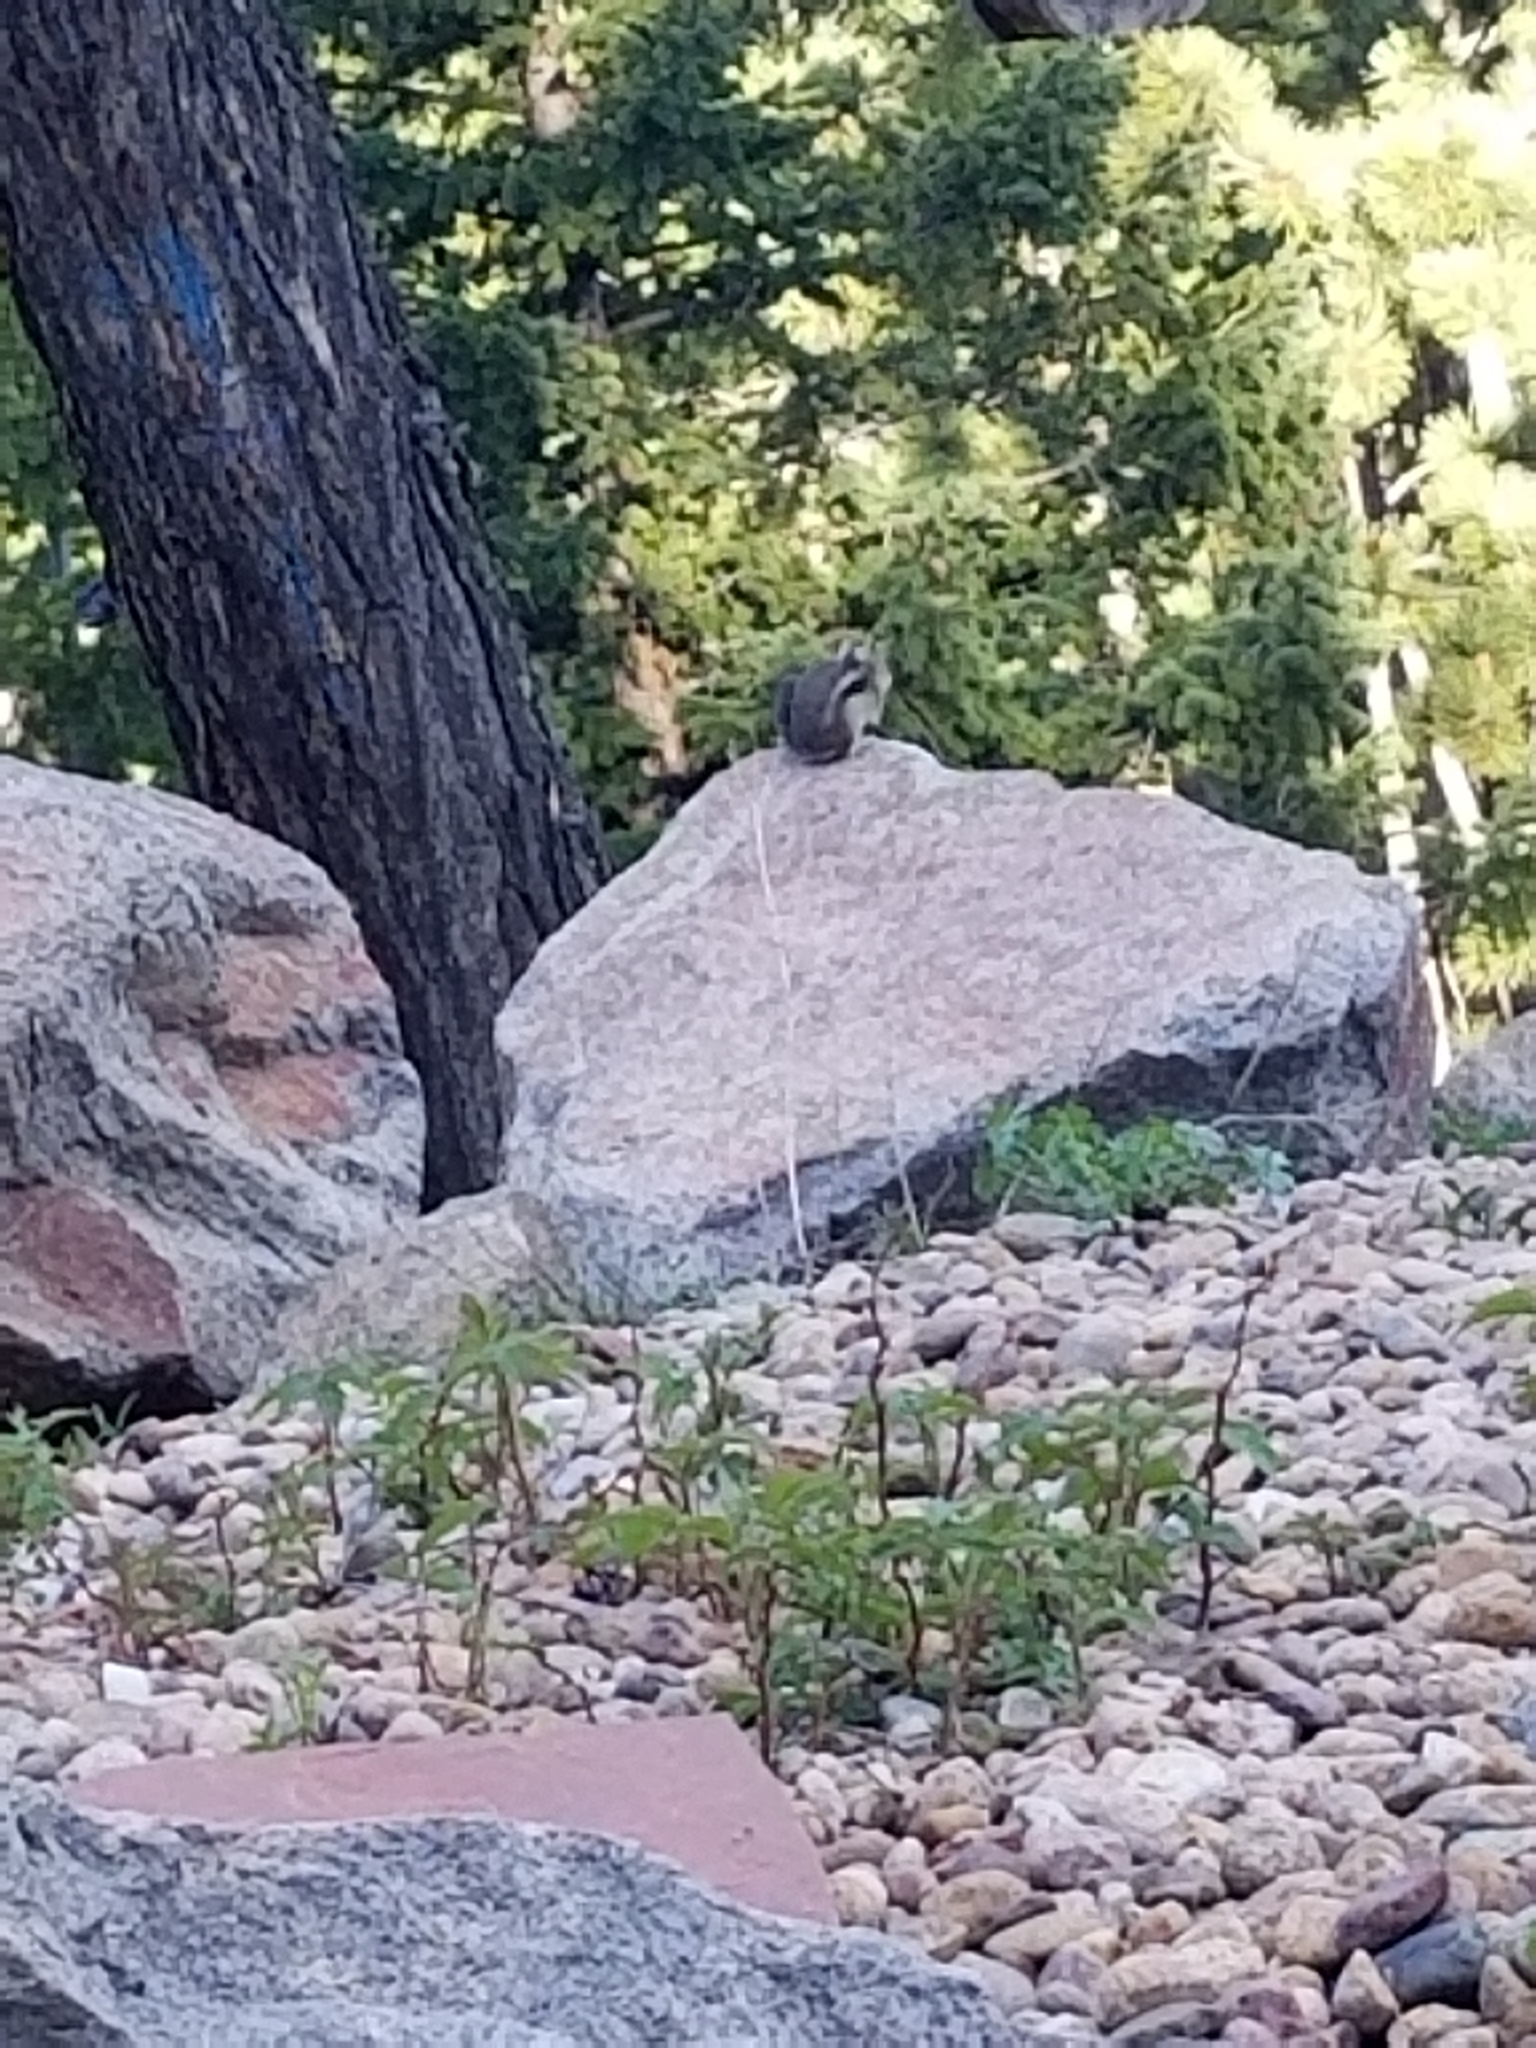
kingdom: Animalia
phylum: Chordata
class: Mammalia
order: Rodentia
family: Sciuridae
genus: Callospermophilus
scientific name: Callospermophilus lateralis
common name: Golden-mantled ground squirrel
